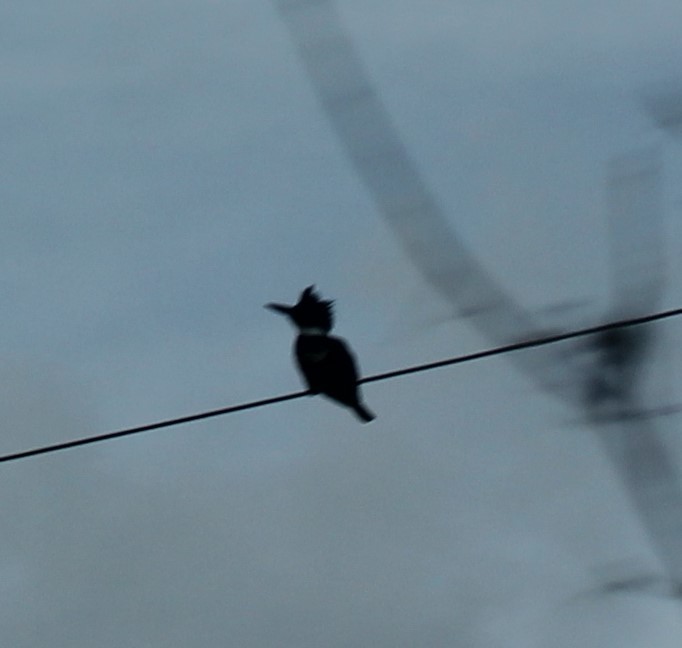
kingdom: Animalia
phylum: Chordata
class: Aves
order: Coraciiformes
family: Alcedinidae
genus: Megaceryle
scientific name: Megaceryle alcyon
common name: Belted kingfisher
